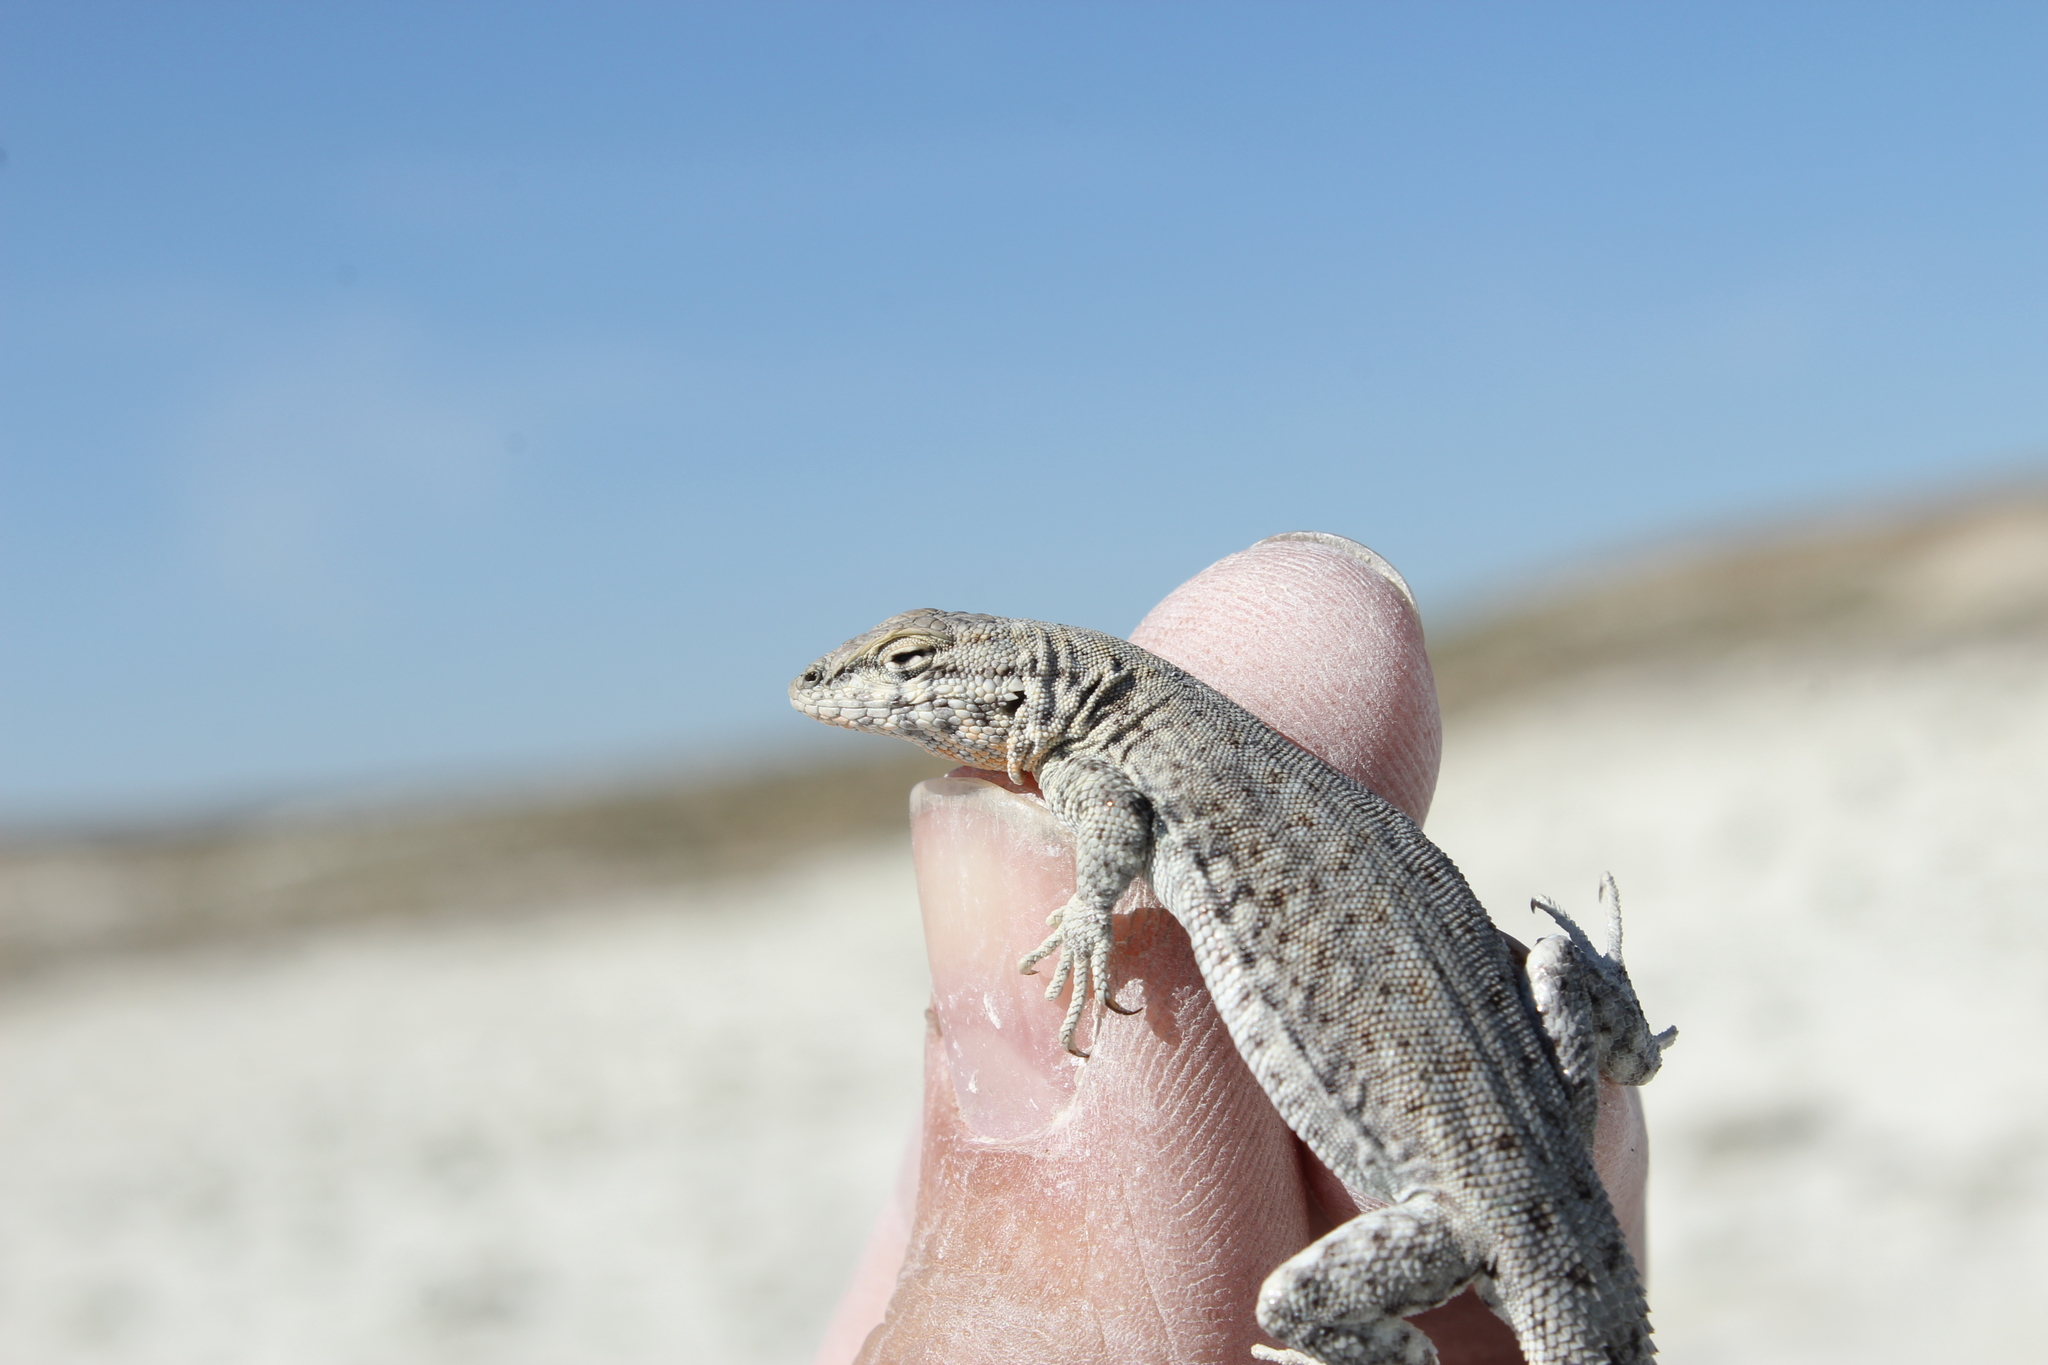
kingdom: Animalia
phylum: Chordata
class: Squamata
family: Phrynosomatidae
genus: Uta
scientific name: Uta stansburiana
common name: Side-blotched lizard
